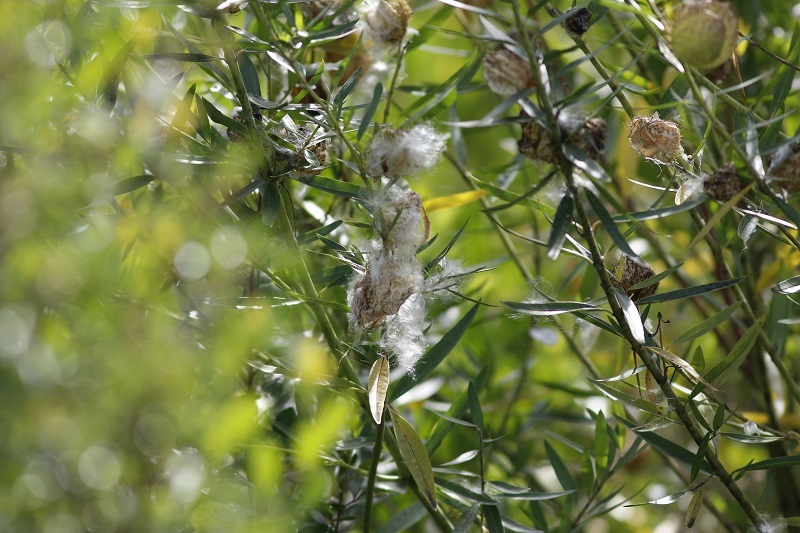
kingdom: Plantae
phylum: Tracheophyta
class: Magnoliopsida
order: Gentianales
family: Apocynaceae
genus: Gomphocarpus
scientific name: Gomphocarpus physocarpus
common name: Balloon cotton bush
